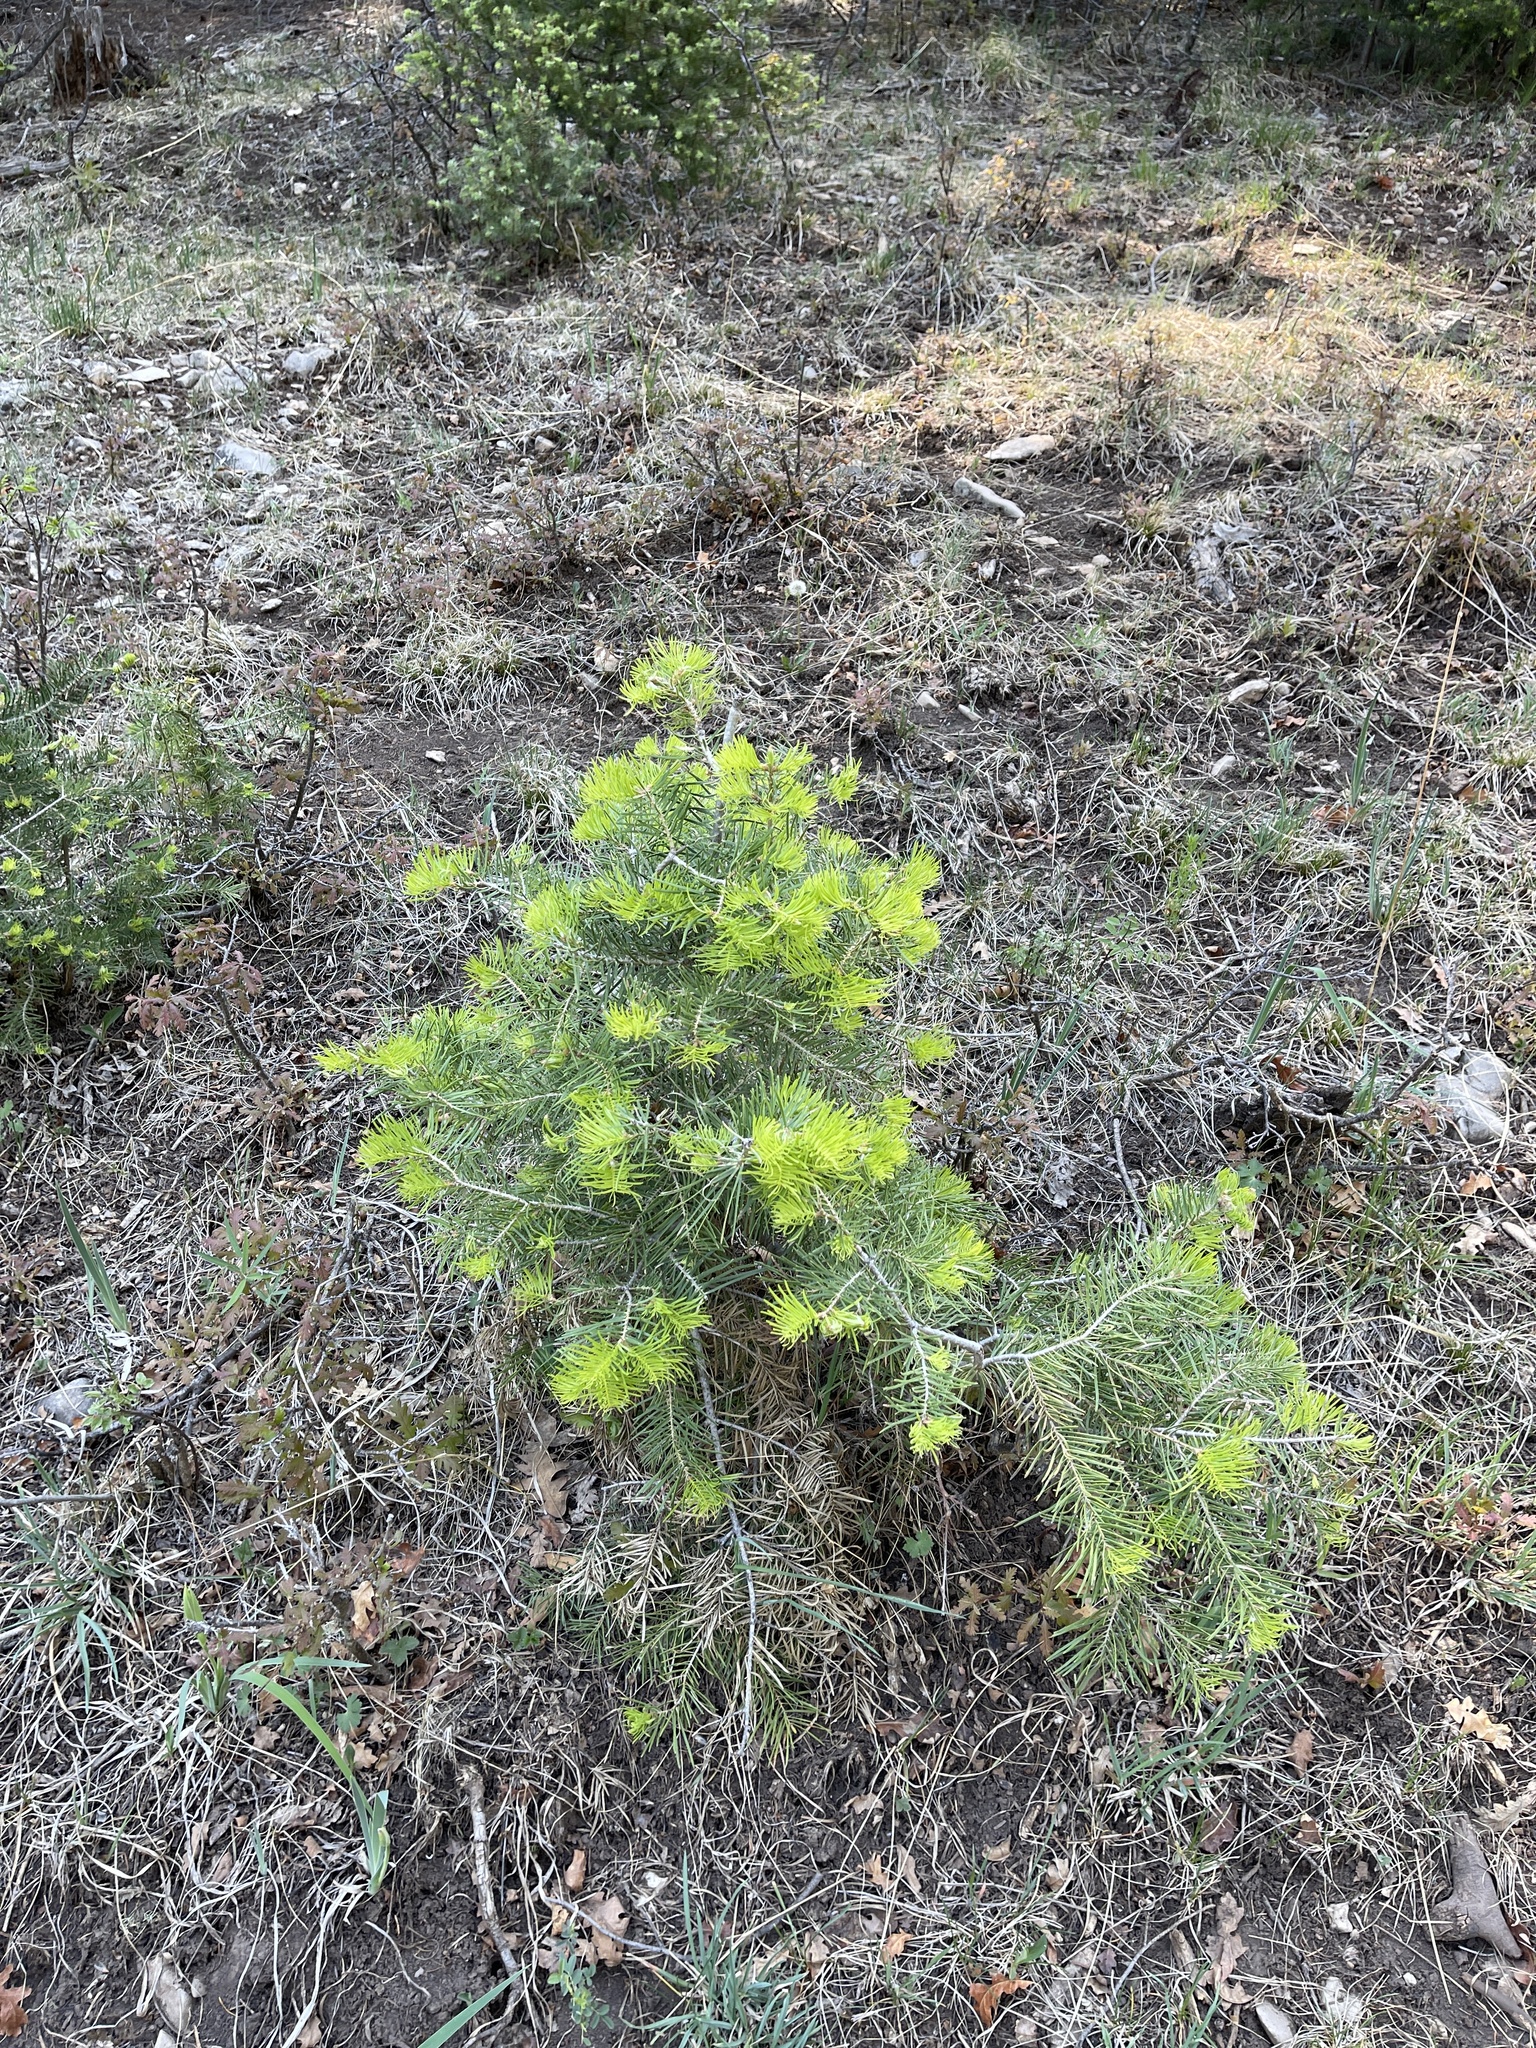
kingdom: Plantae
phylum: Tracheophyta
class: Pinopsida
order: Pinales
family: Pinaceae
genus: Abies
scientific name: Abies concolor
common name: Colorado fir
